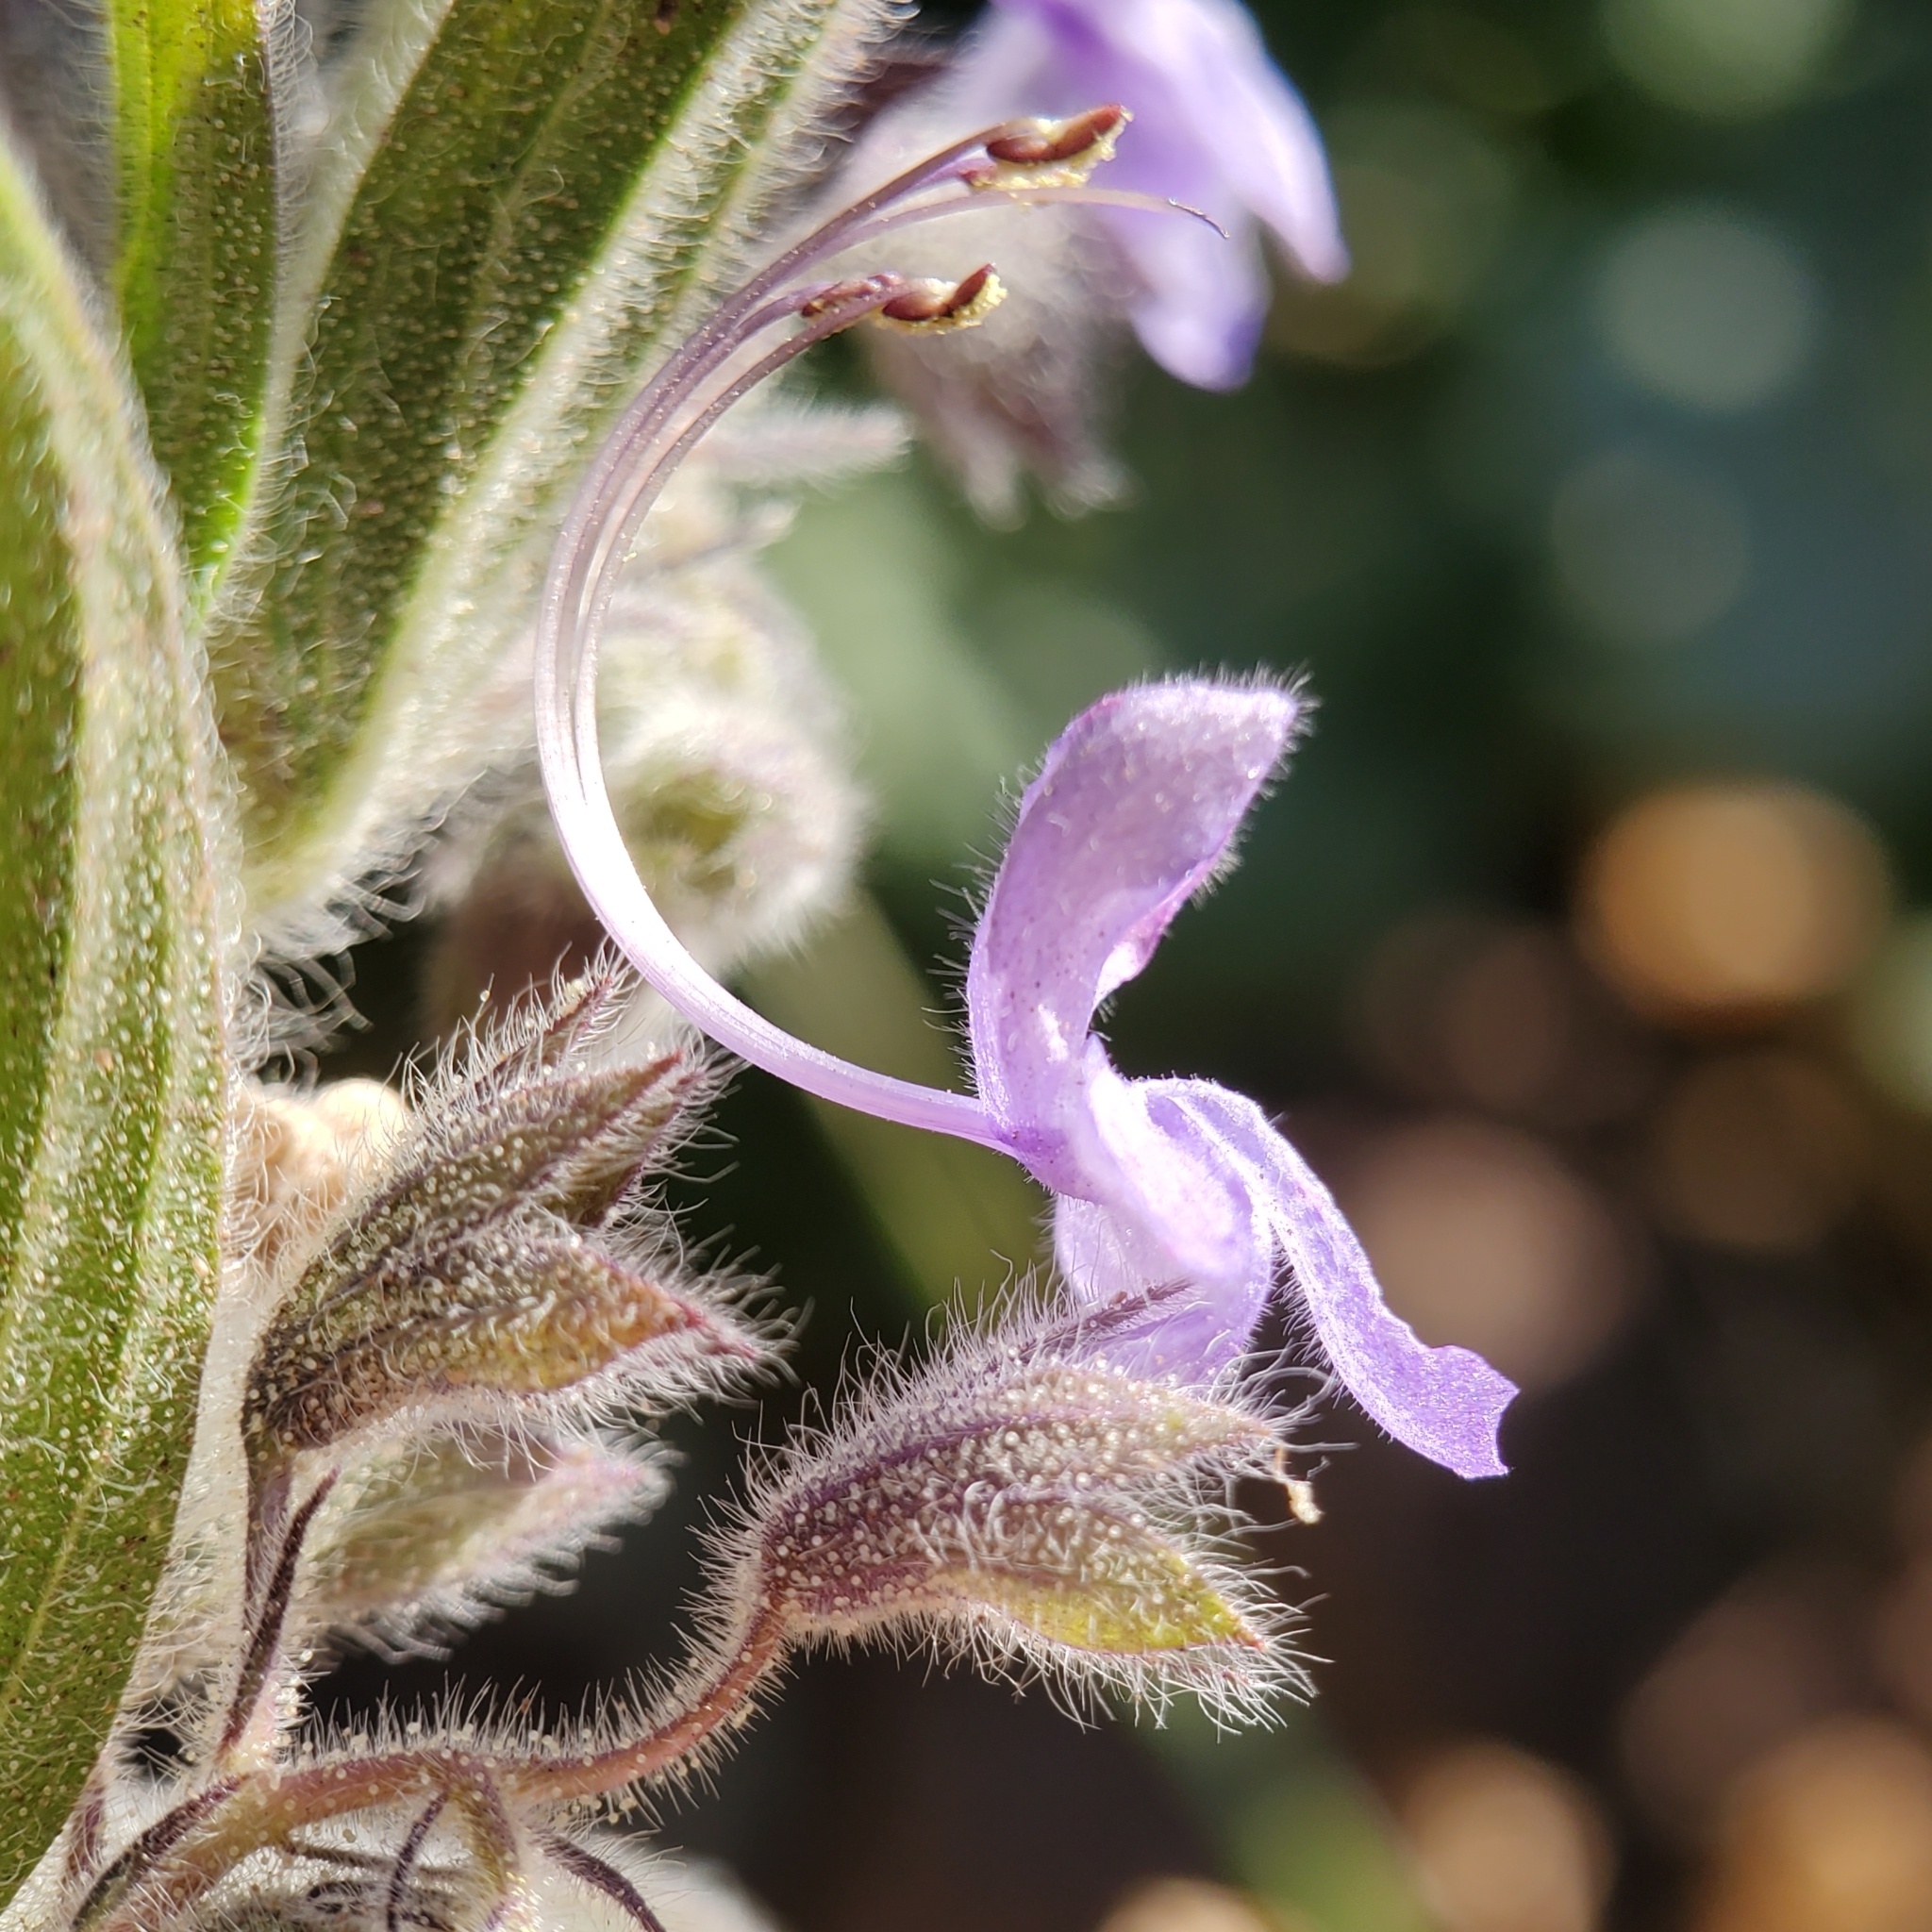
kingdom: Plantae
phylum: Tracheophyta
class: Magnoliopsida
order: Lamiales
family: Lamiaceae
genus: Trichostema
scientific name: Trichostema lanceolatum
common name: Vinegar-weed
